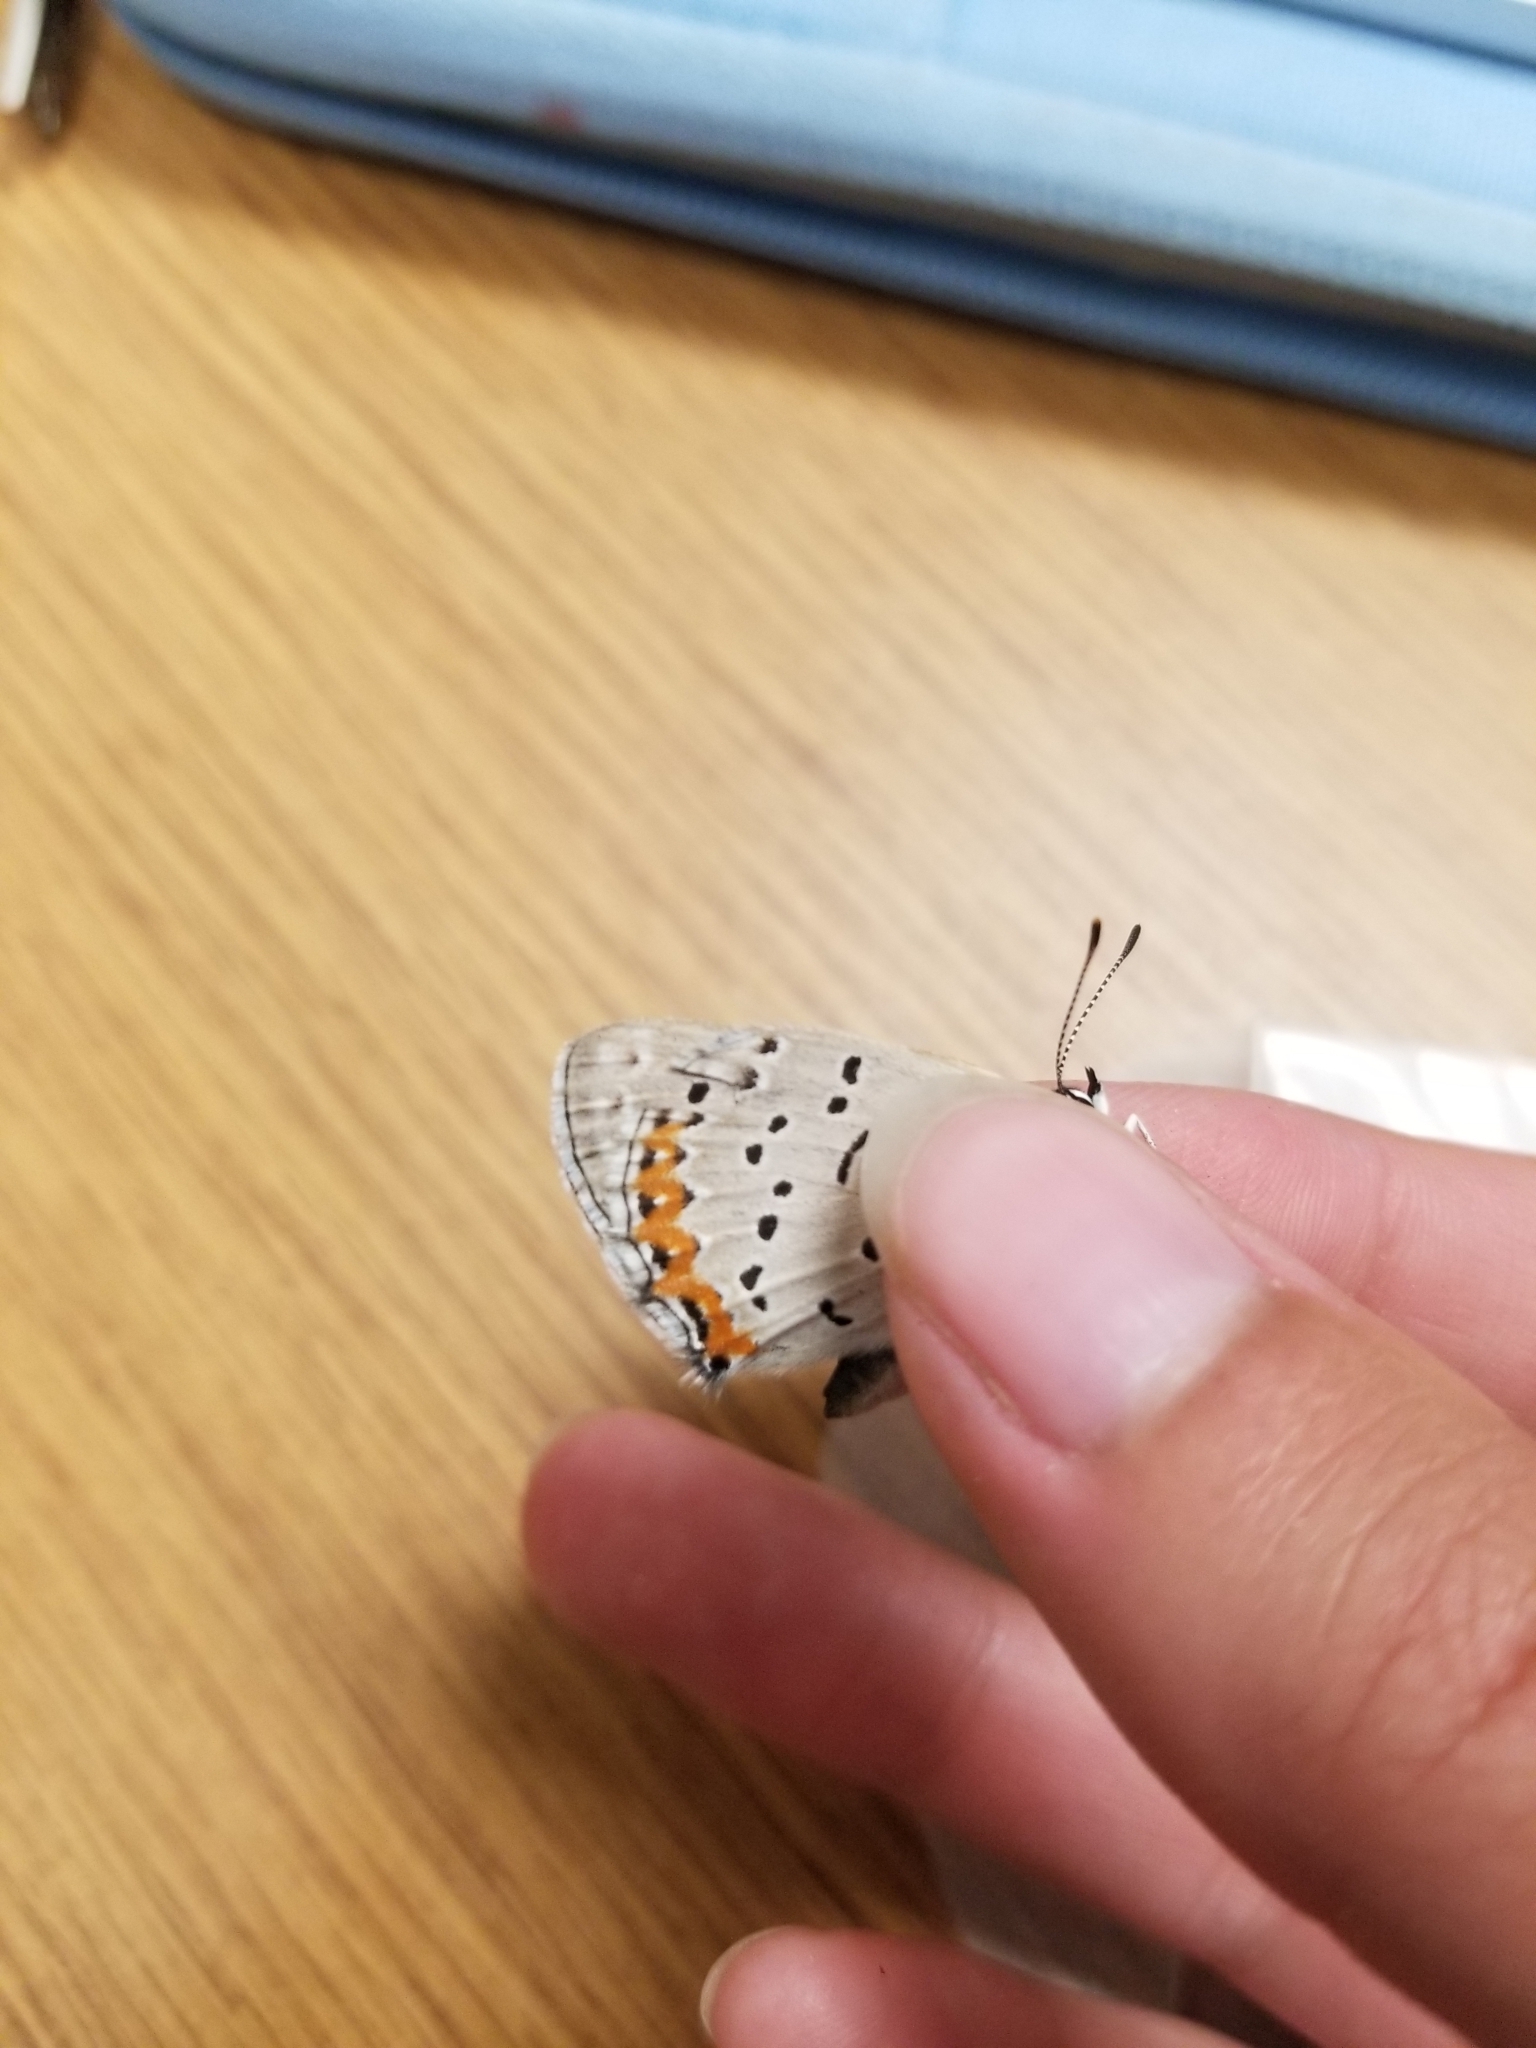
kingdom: Animalia
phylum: Arthropoda
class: Insecta
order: Lepidoptera
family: Lycaenidae
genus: Tharsalea
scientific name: Tharsalea dione
